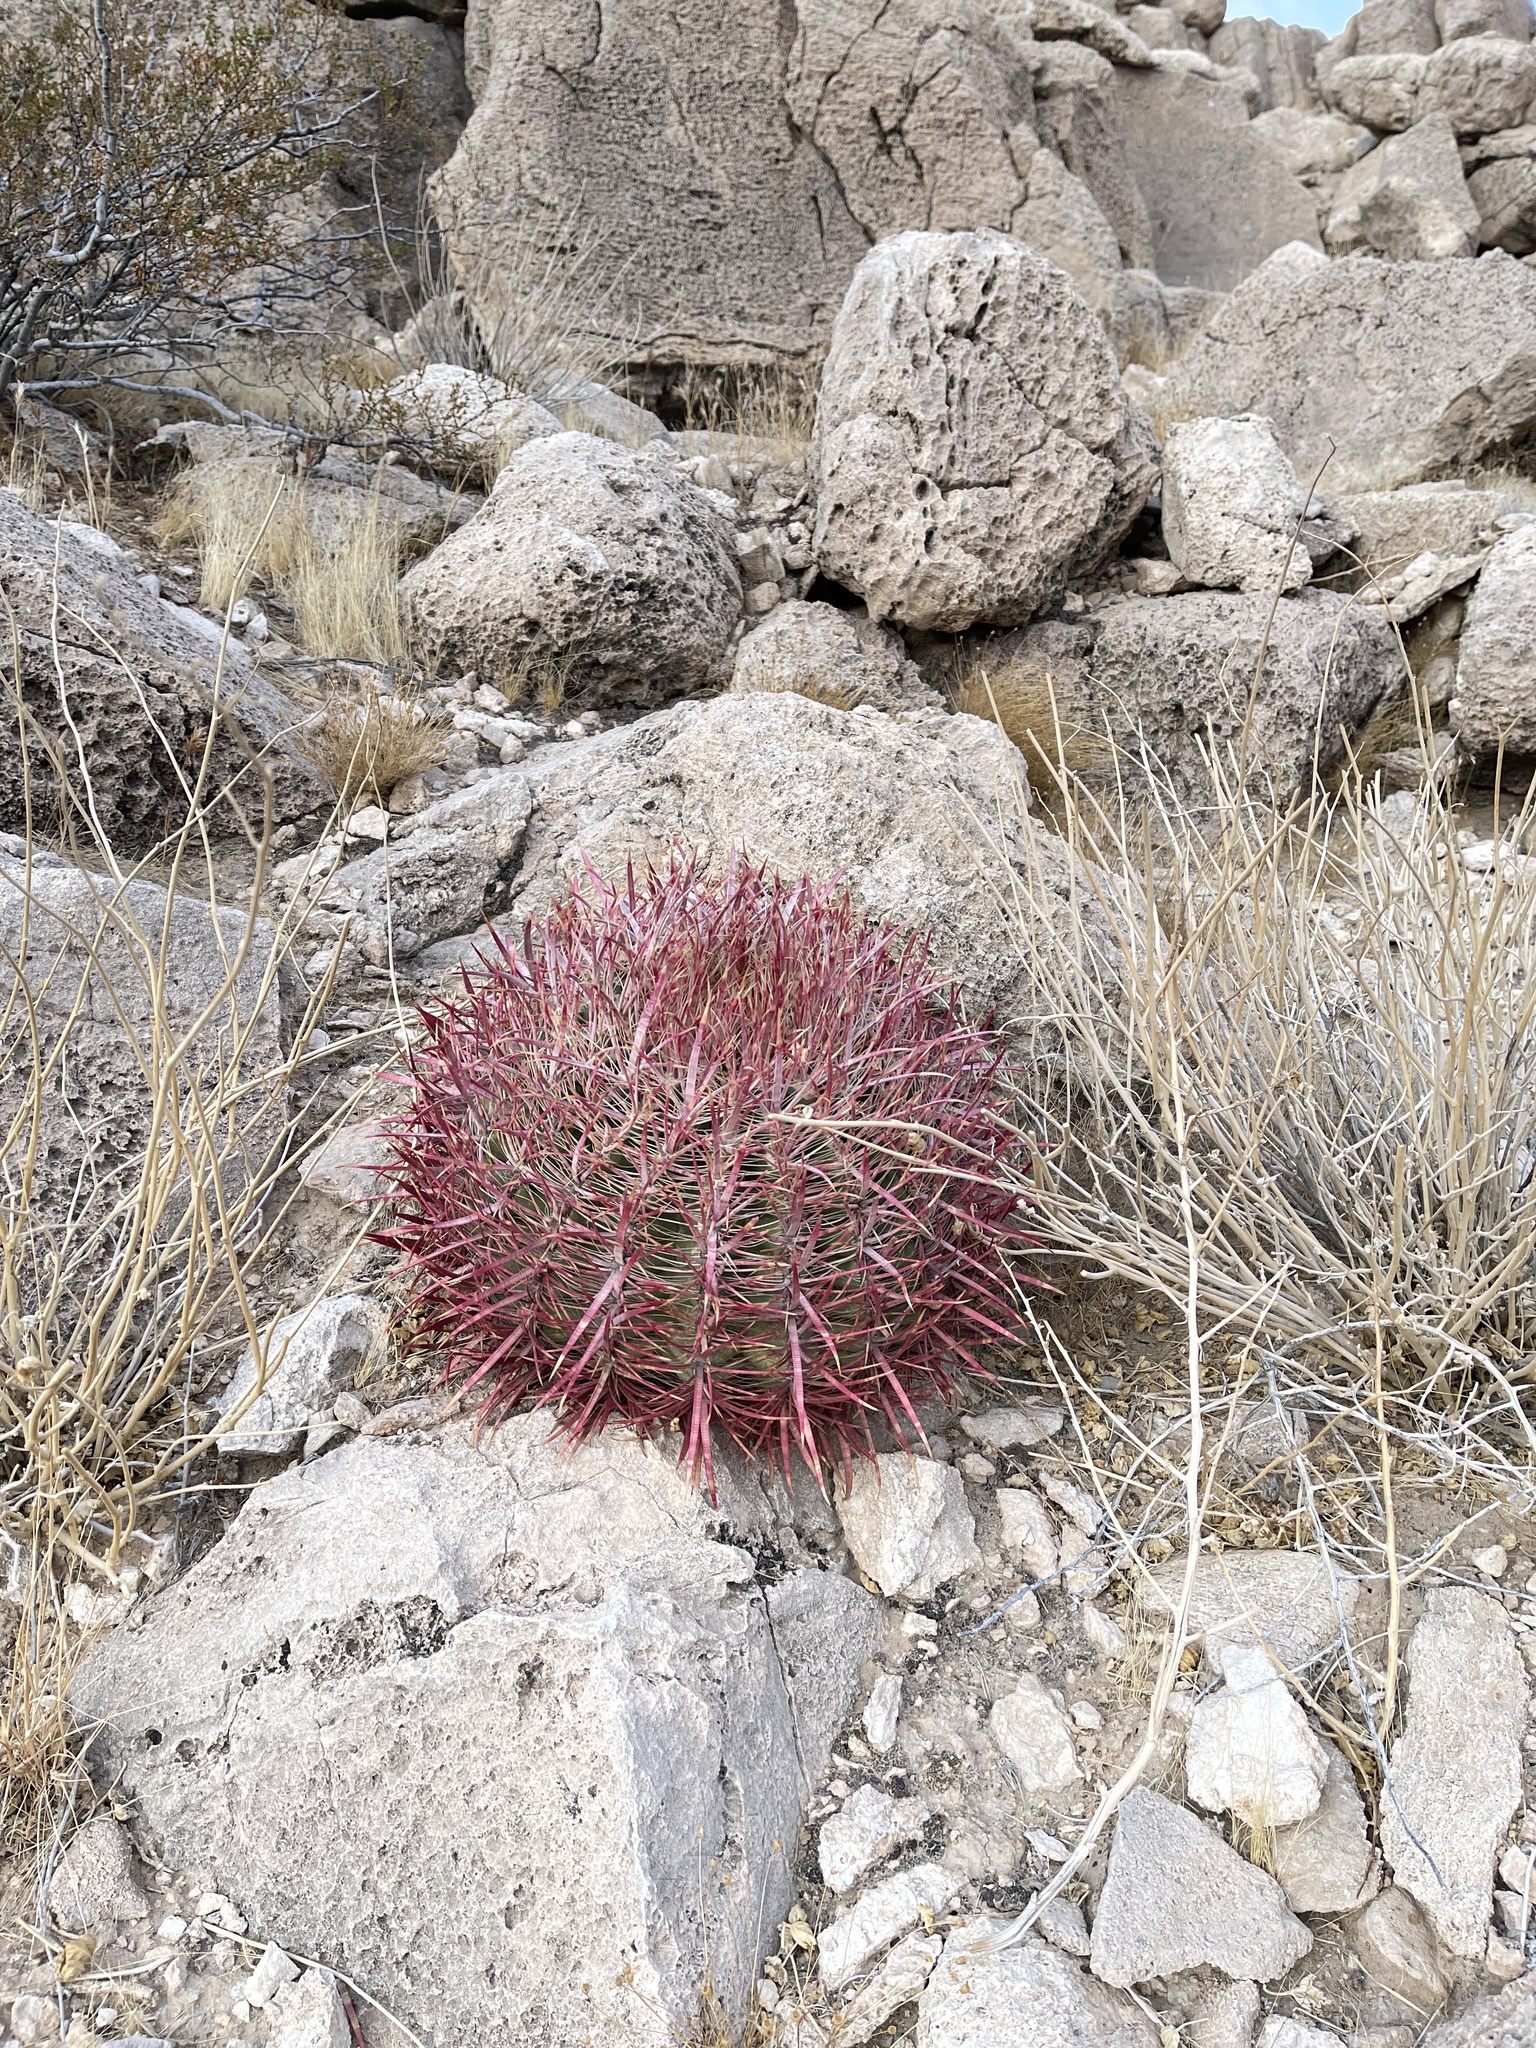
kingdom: Plantae
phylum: Tracheophyta
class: Magnoliopsida
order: Caryophyllales
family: Cactaceae
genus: Ferocactus
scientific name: Ferocactus cylindraceus
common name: California barrel cactus
